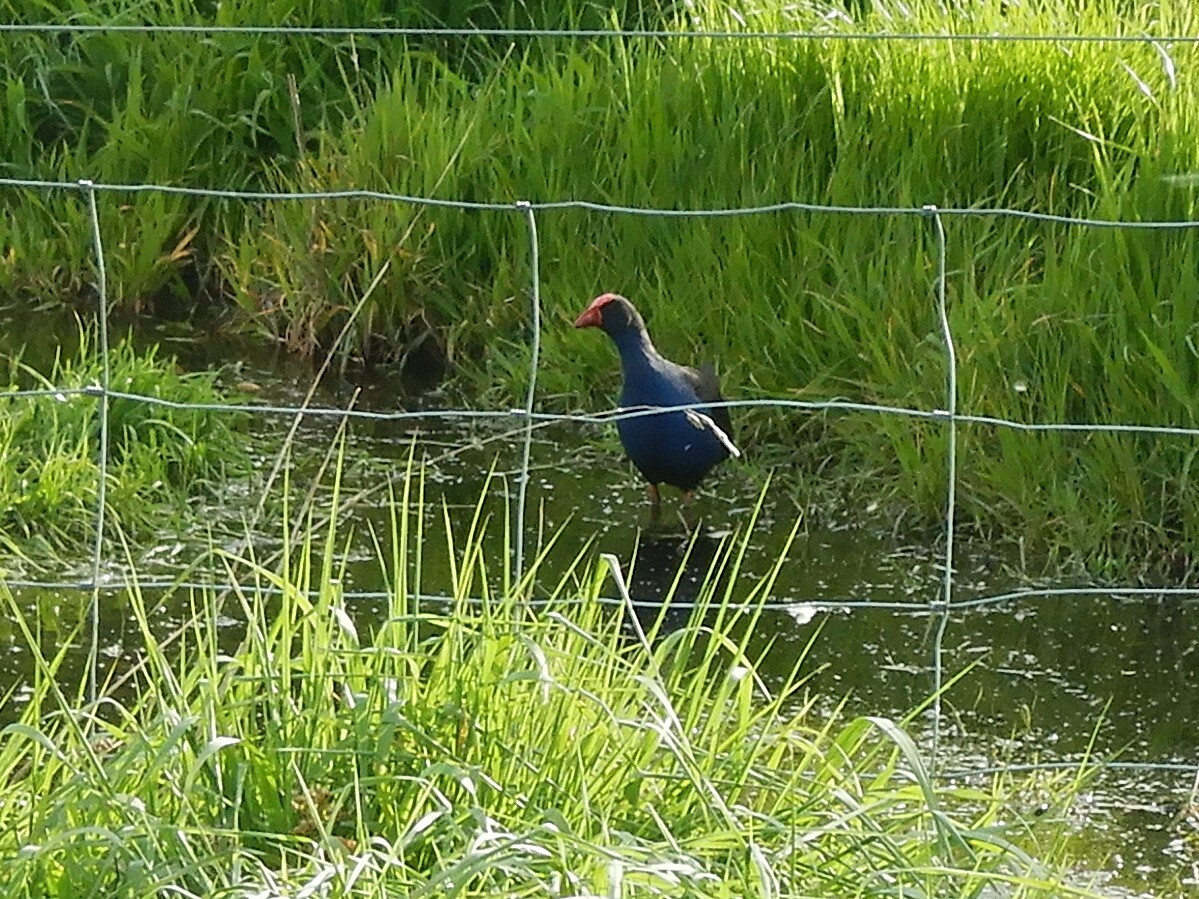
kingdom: Animalia
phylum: Chordata
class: Aves
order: Gruiformes
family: Rallidae
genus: Porphyrio
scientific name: Porphyrio melanotus
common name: Australasian swamphen
